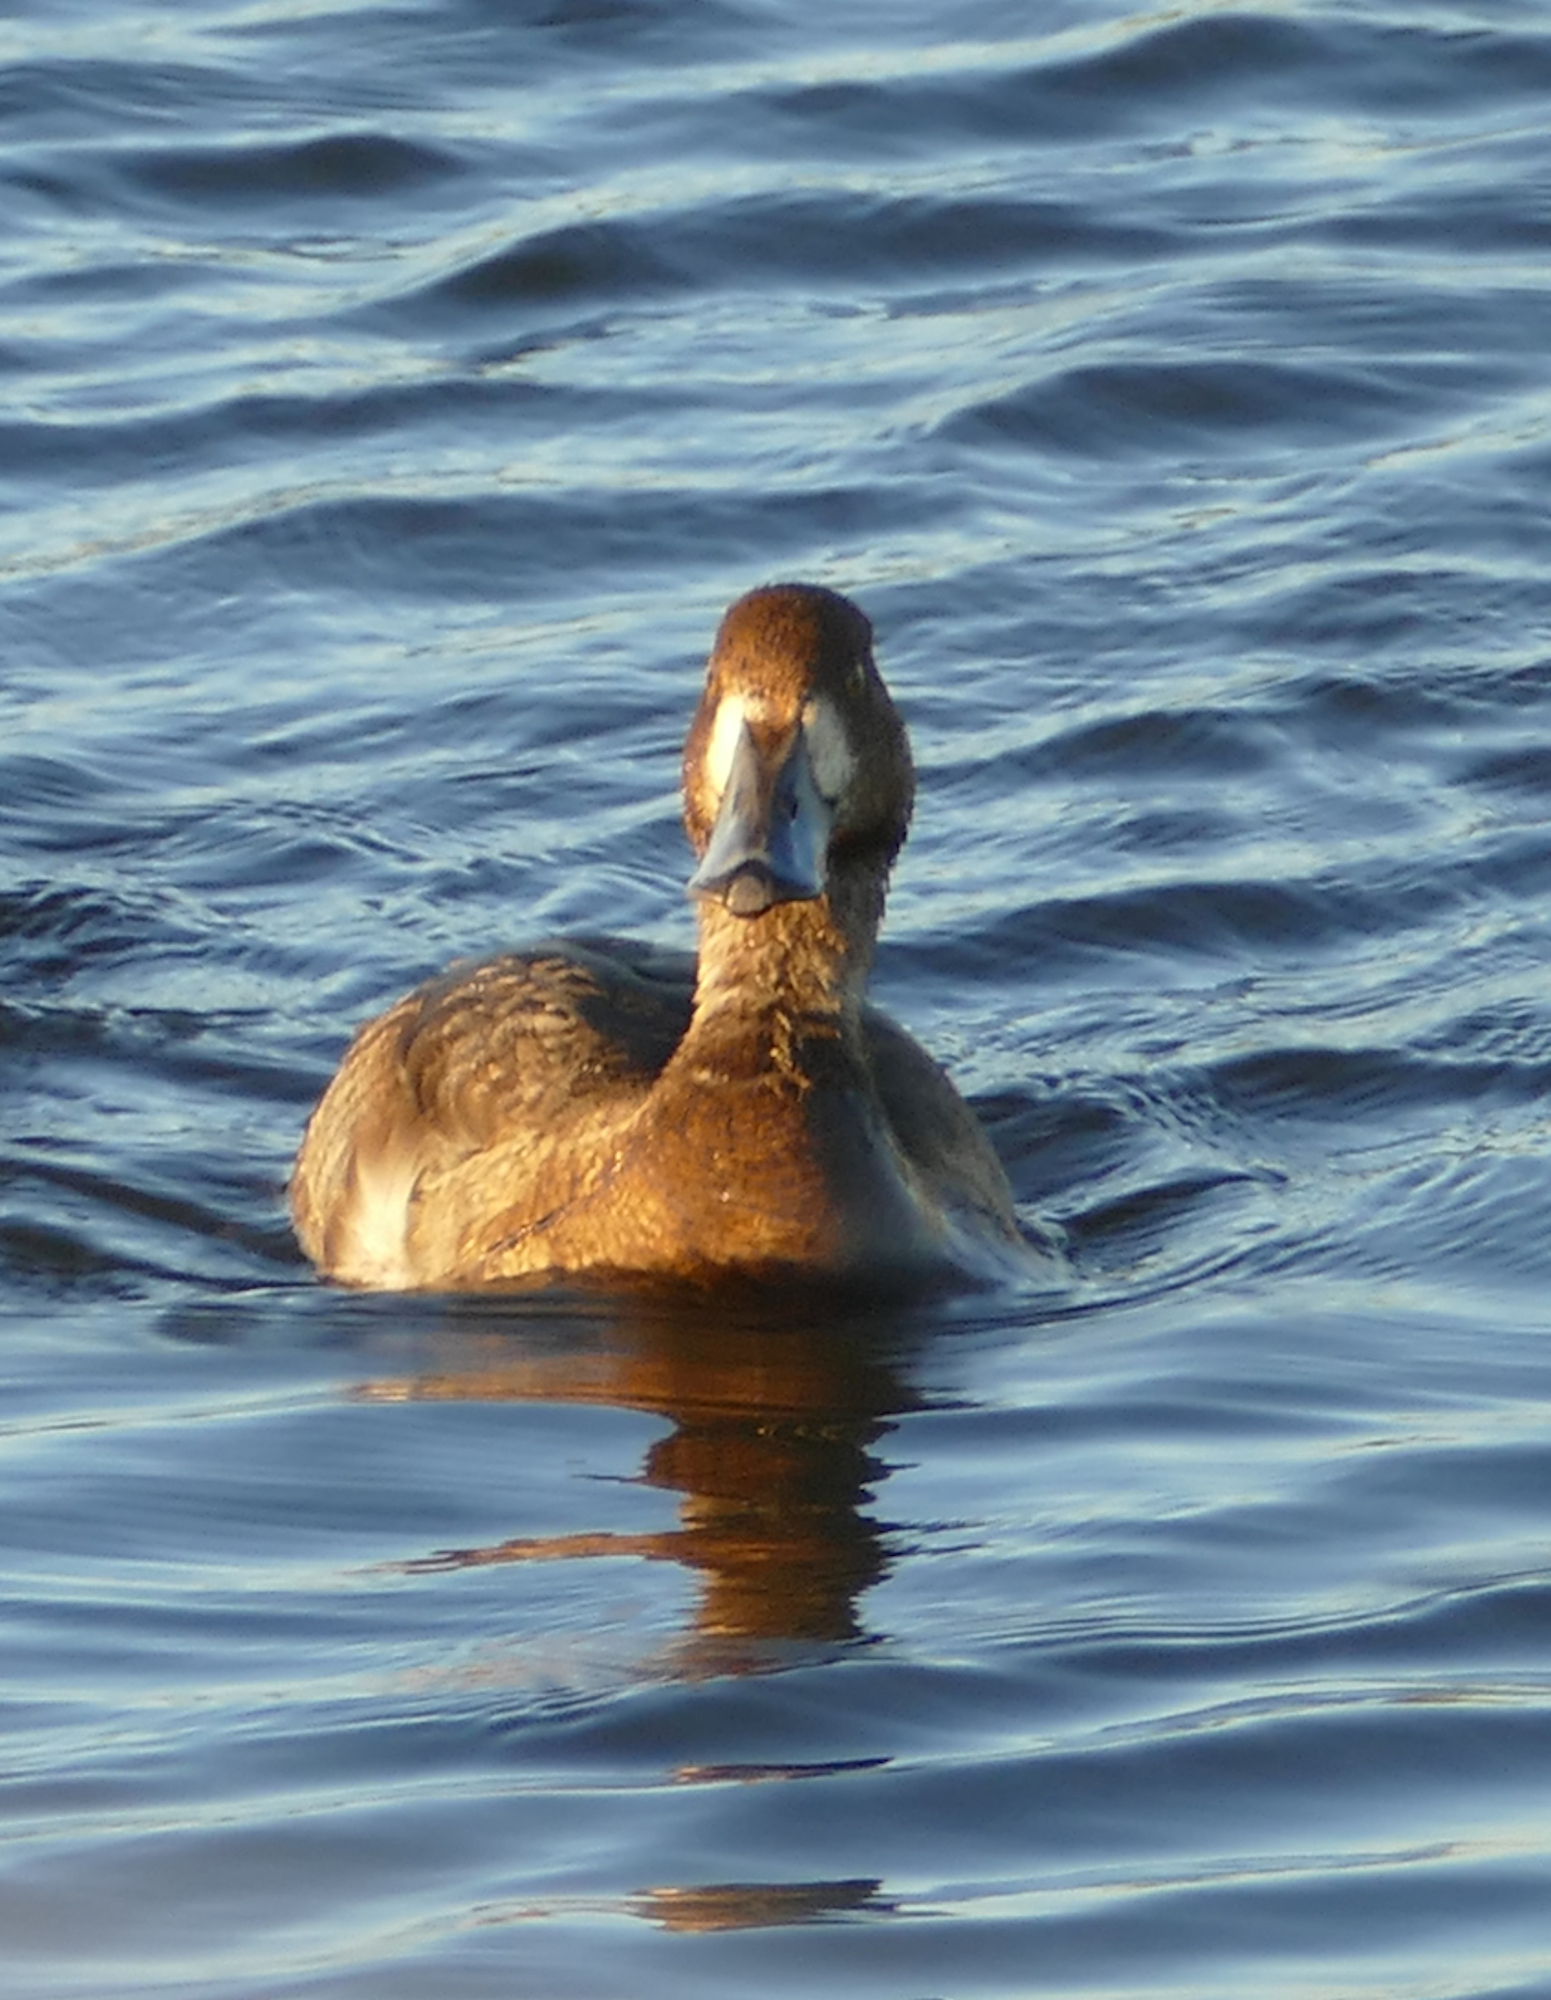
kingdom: Animalia
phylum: Chordata
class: Aves
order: Anseriformes
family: Anatidae
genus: Aythya
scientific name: Aythya marila
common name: Greater scaup
